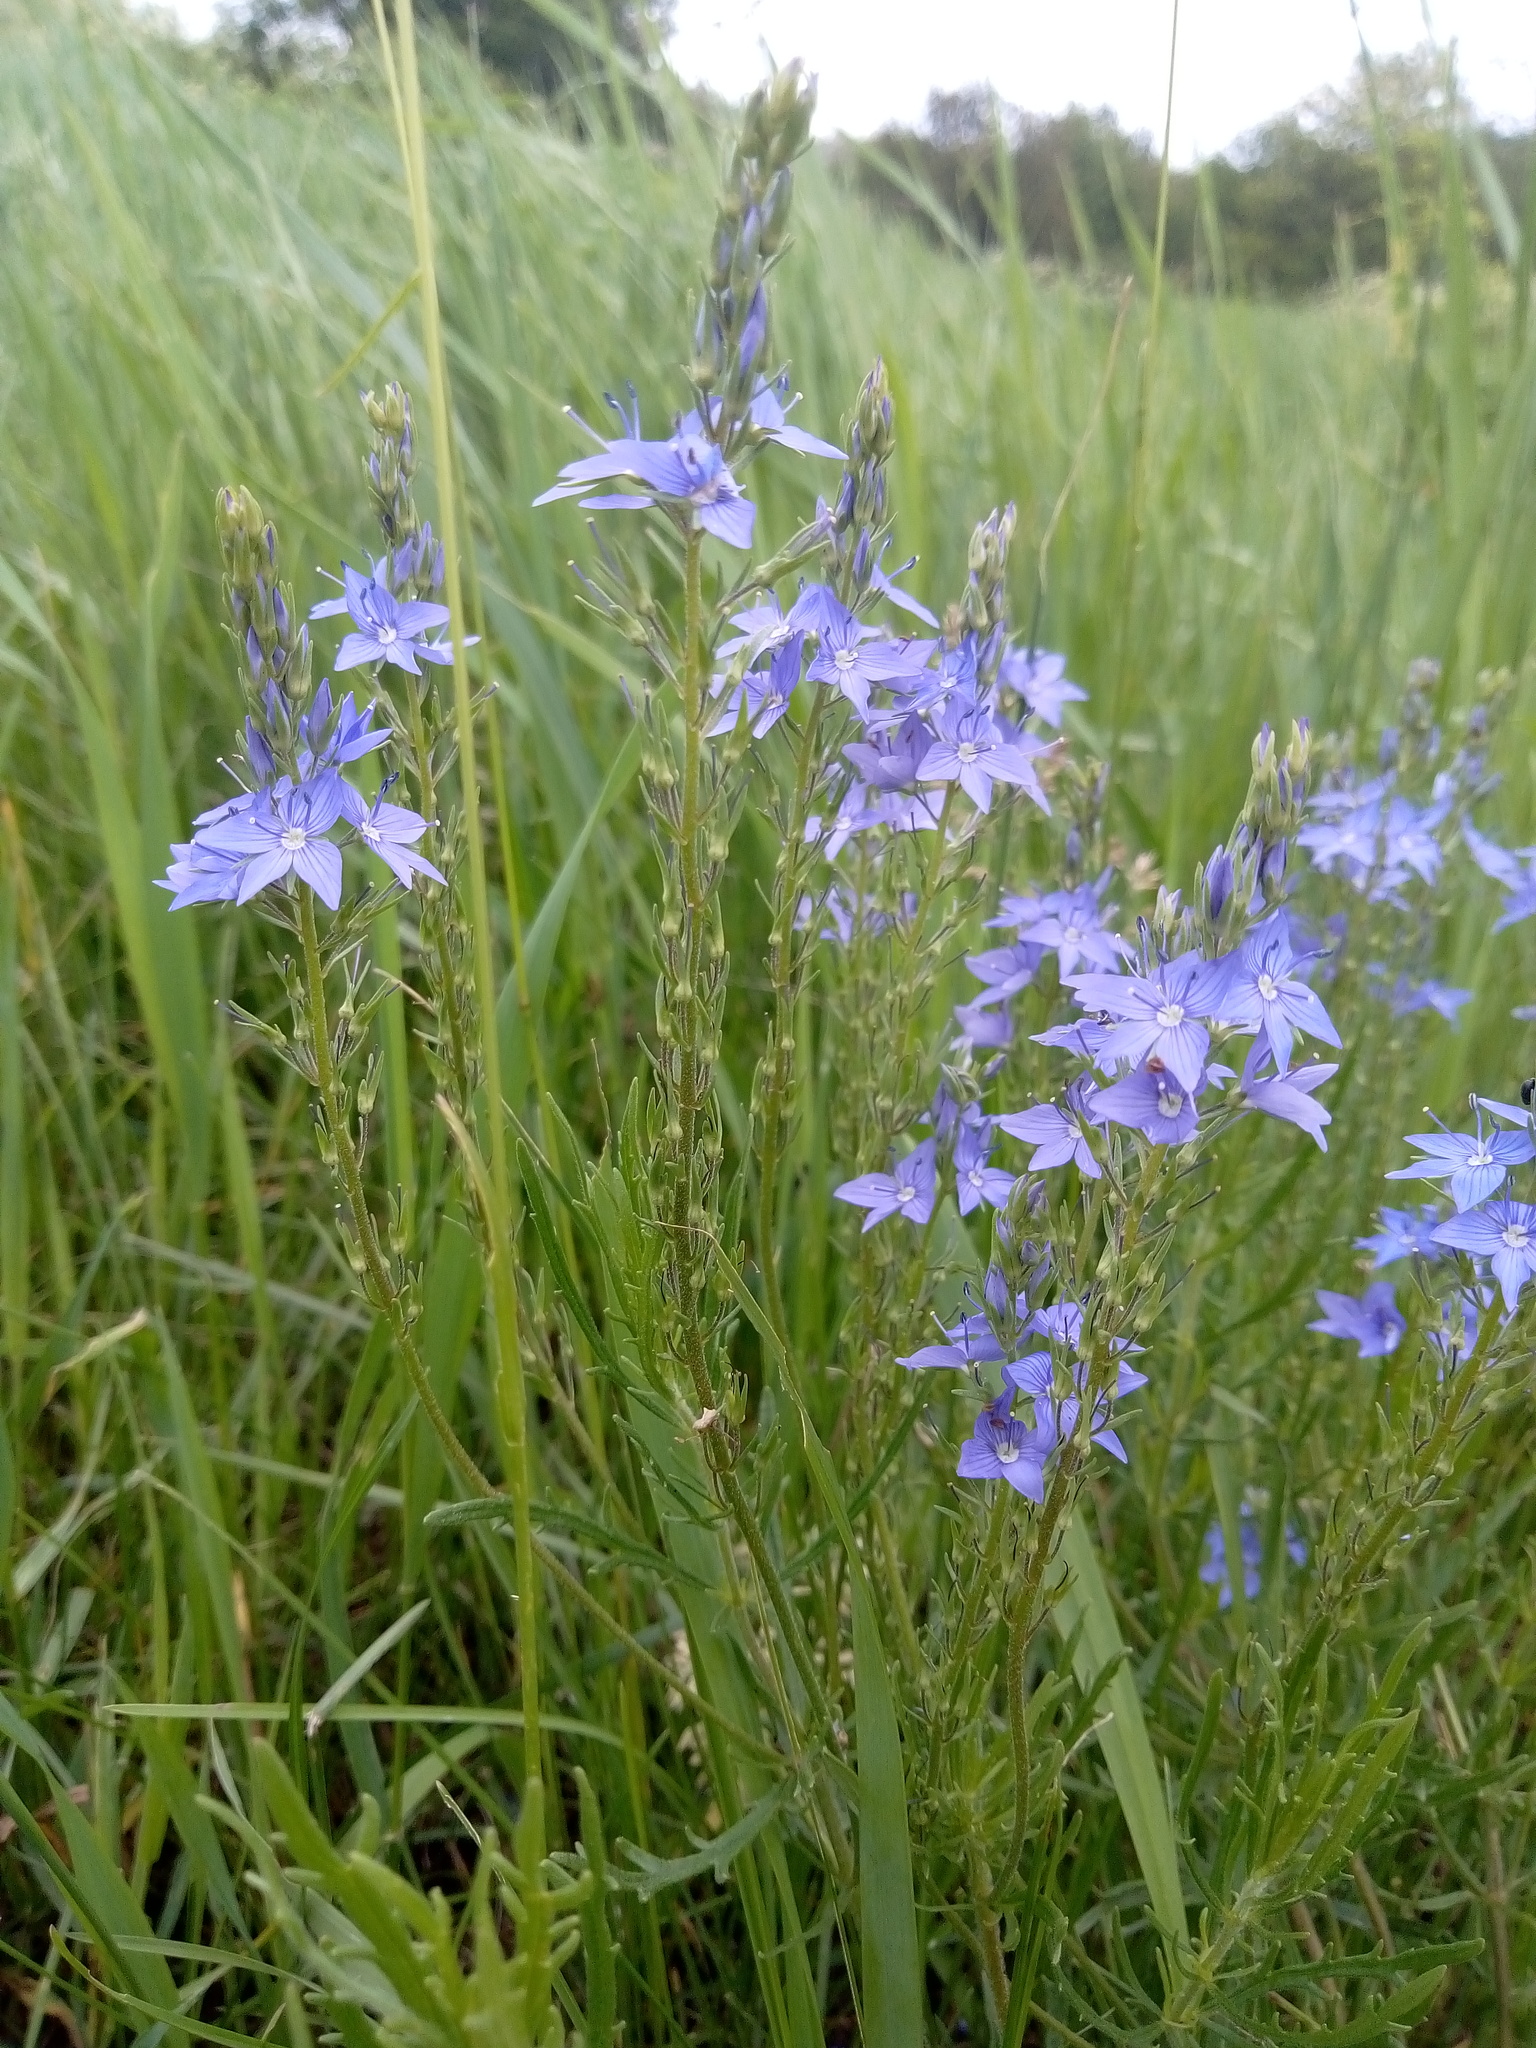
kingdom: Plantae
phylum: Tracheophyta
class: Magnoliopsida
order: Lamiales
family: Plantaginaceae
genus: Veronica
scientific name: Veronica austriaca
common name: Large speedwell
